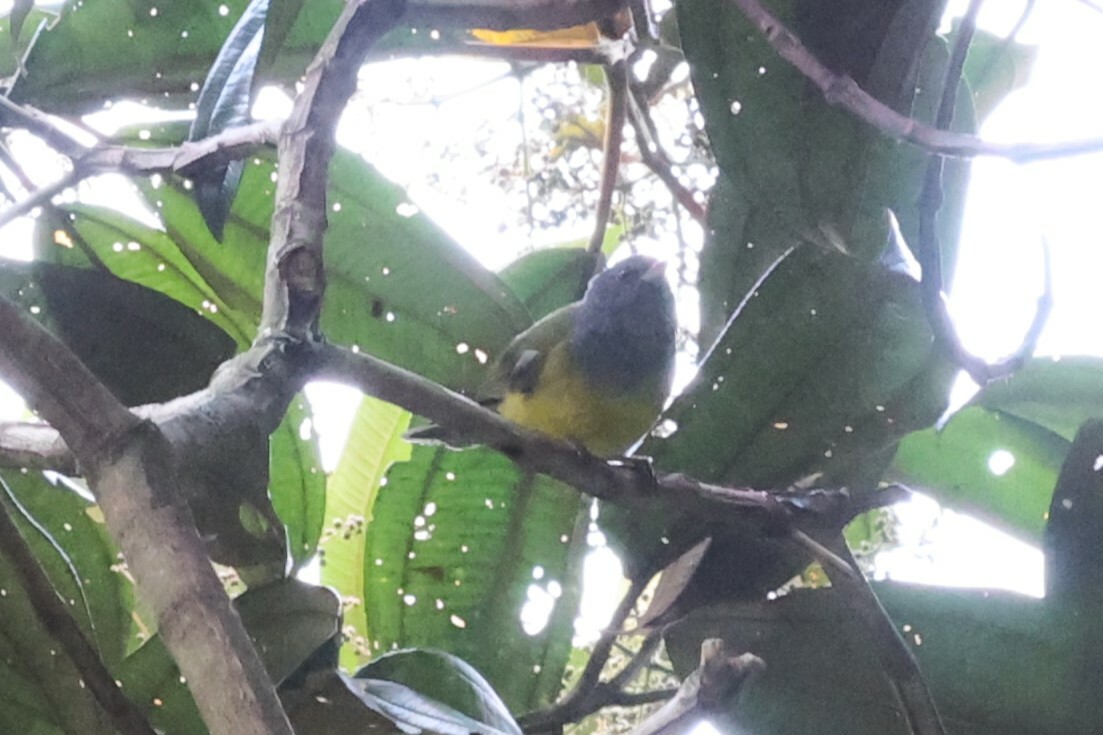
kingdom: Animalia
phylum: Chordata
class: Aves
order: Passeriformes
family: Thraupidae
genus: Cnemoscopus
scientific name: Cnemoscopus rubrirostris
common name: Grey-hooded bush tanager
